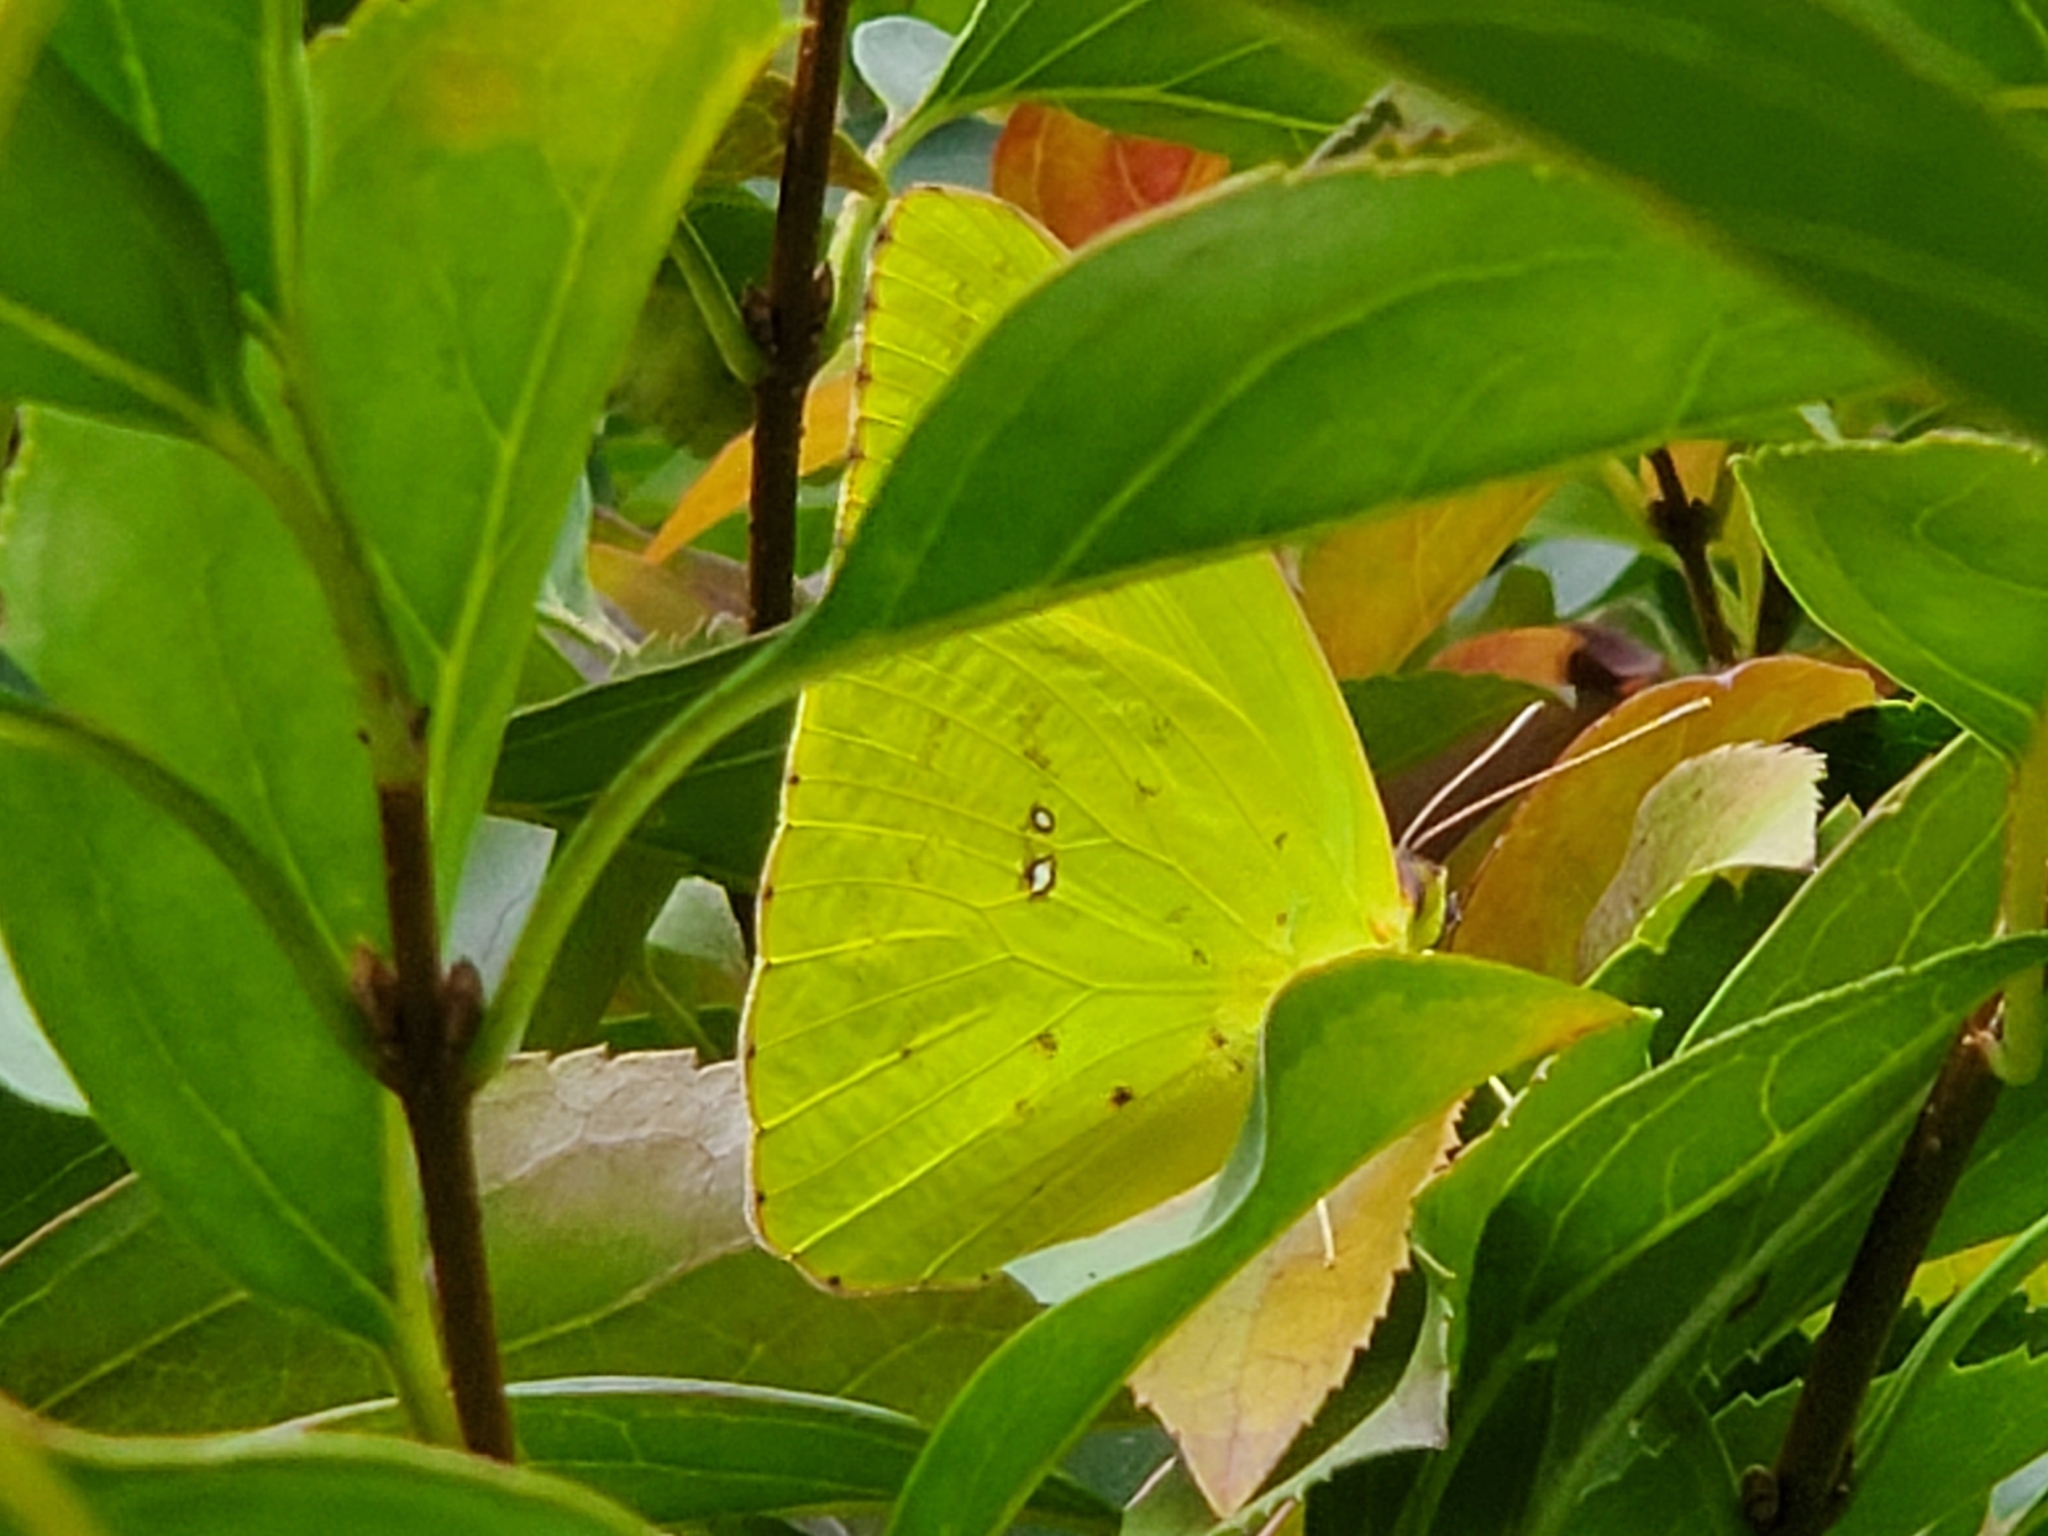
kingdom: Animalia
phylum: Arthropoda
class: Insecta
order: Lepidoptera
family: Pieridae
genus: Phoebis
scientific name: Phoebis sennae
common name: Cloudless sulphur
